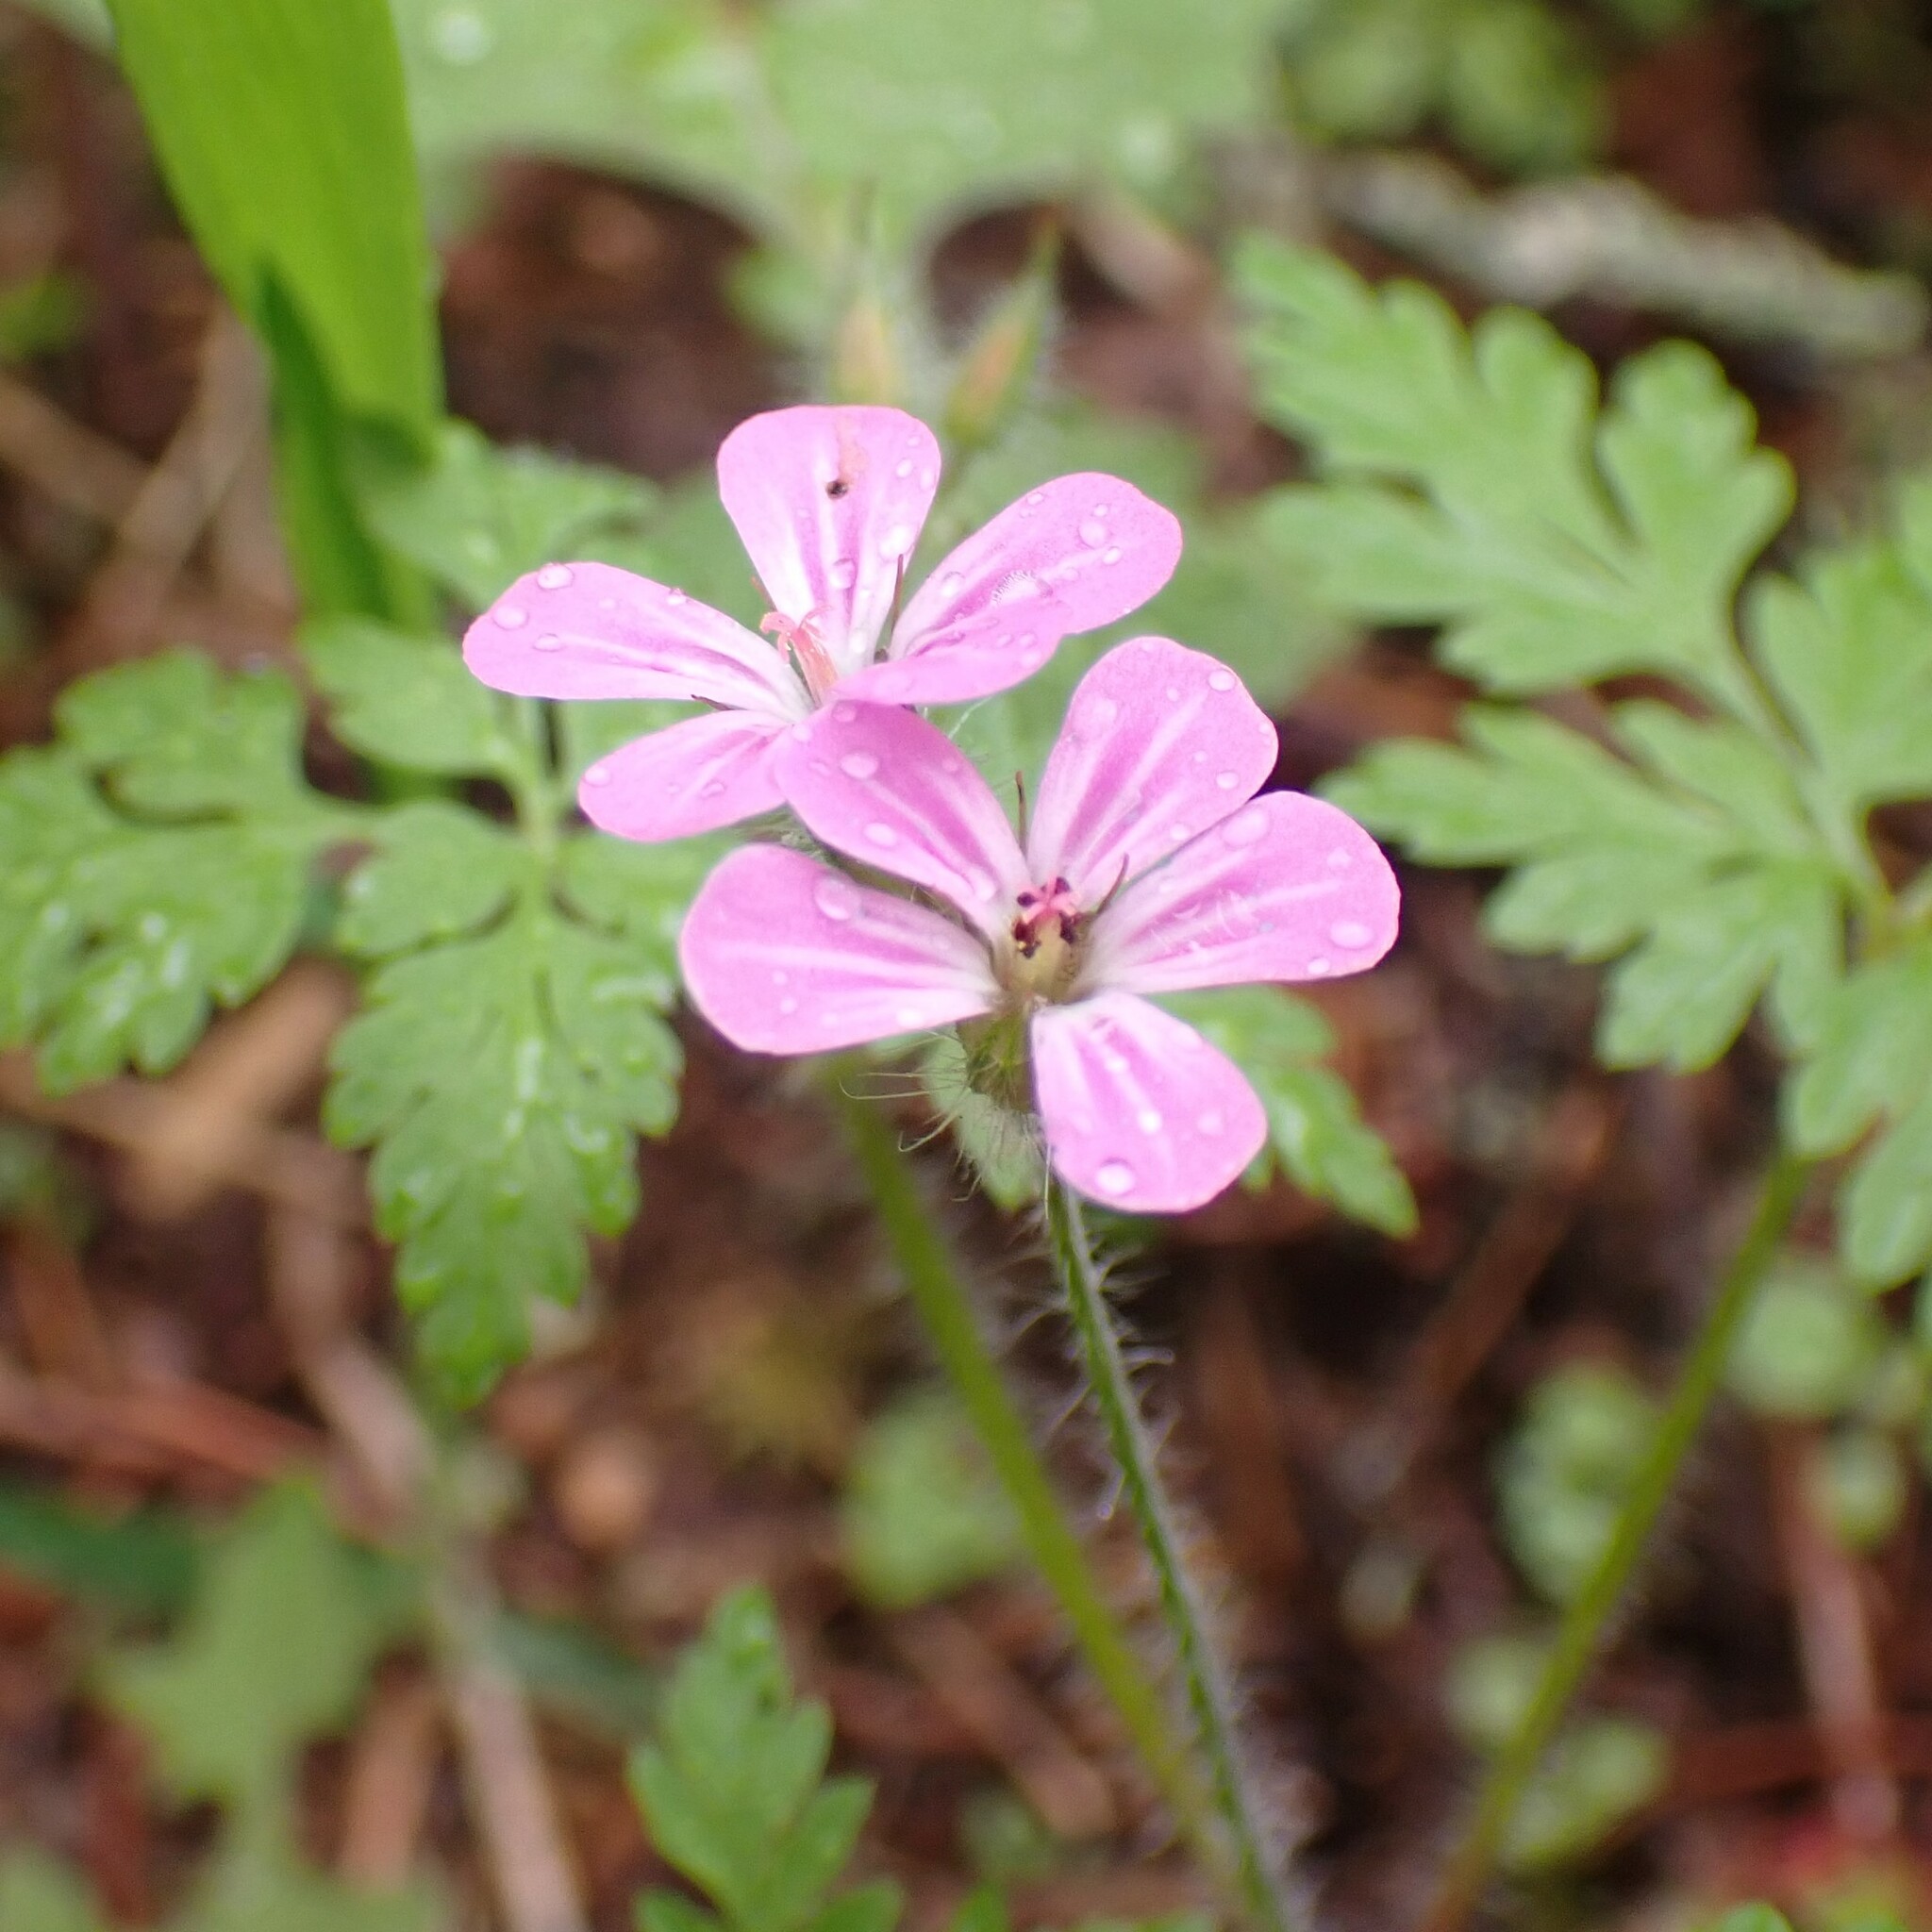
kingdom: Plantae
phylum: Tracheophyta
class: Magnoliopsida
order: Geraniales
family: Geraniaceae
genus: Geranium
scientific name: Geranium robertianum
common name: Herb-robert
